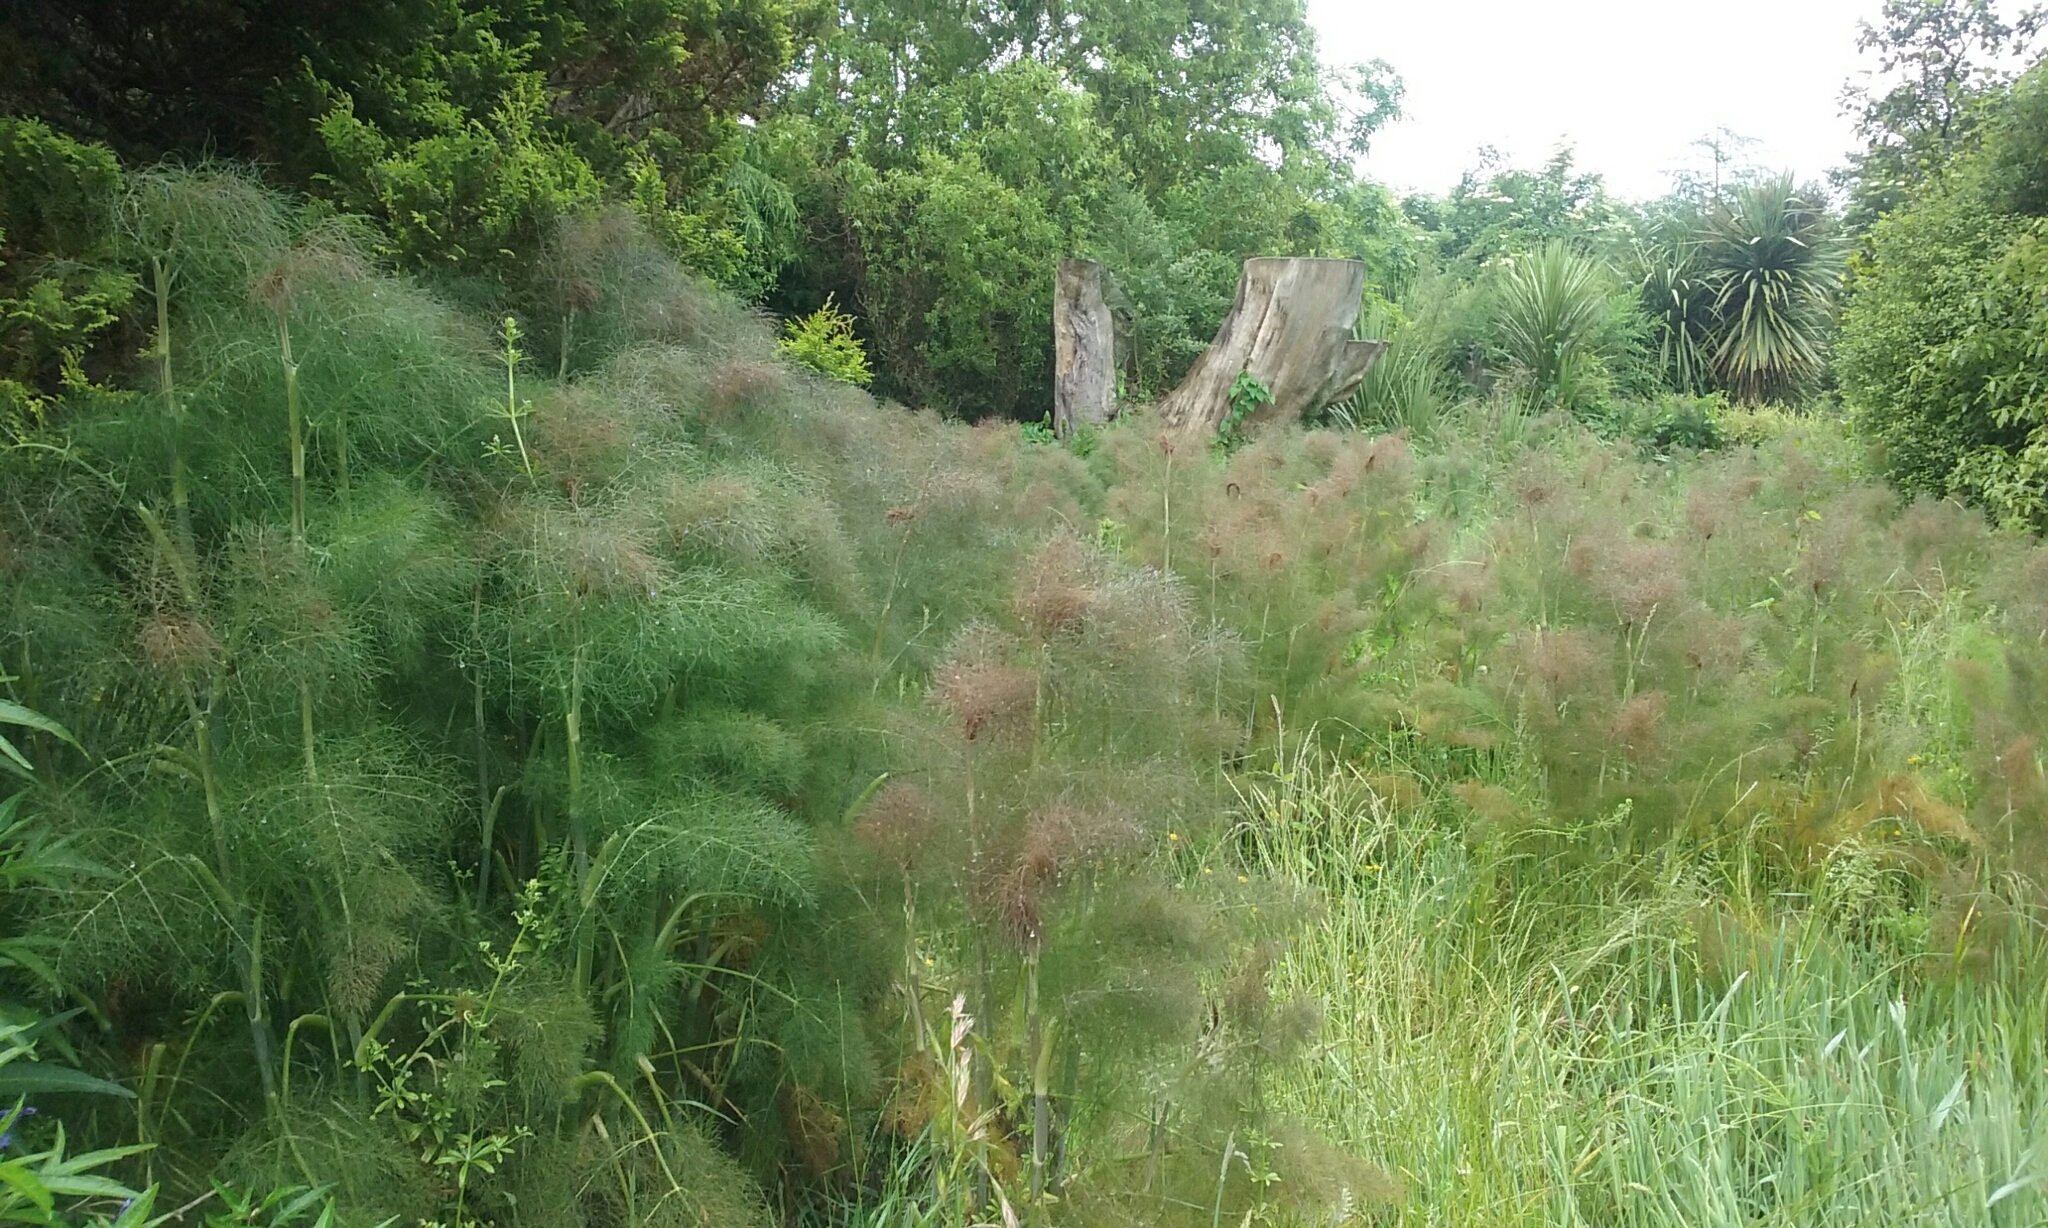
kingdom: Plantae
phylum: Tracheophyta
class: Magnoliopsida
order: Apiales
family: Apiaceae
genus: Foeniculum
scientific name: Foeniculum vulgare
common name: Fennel
